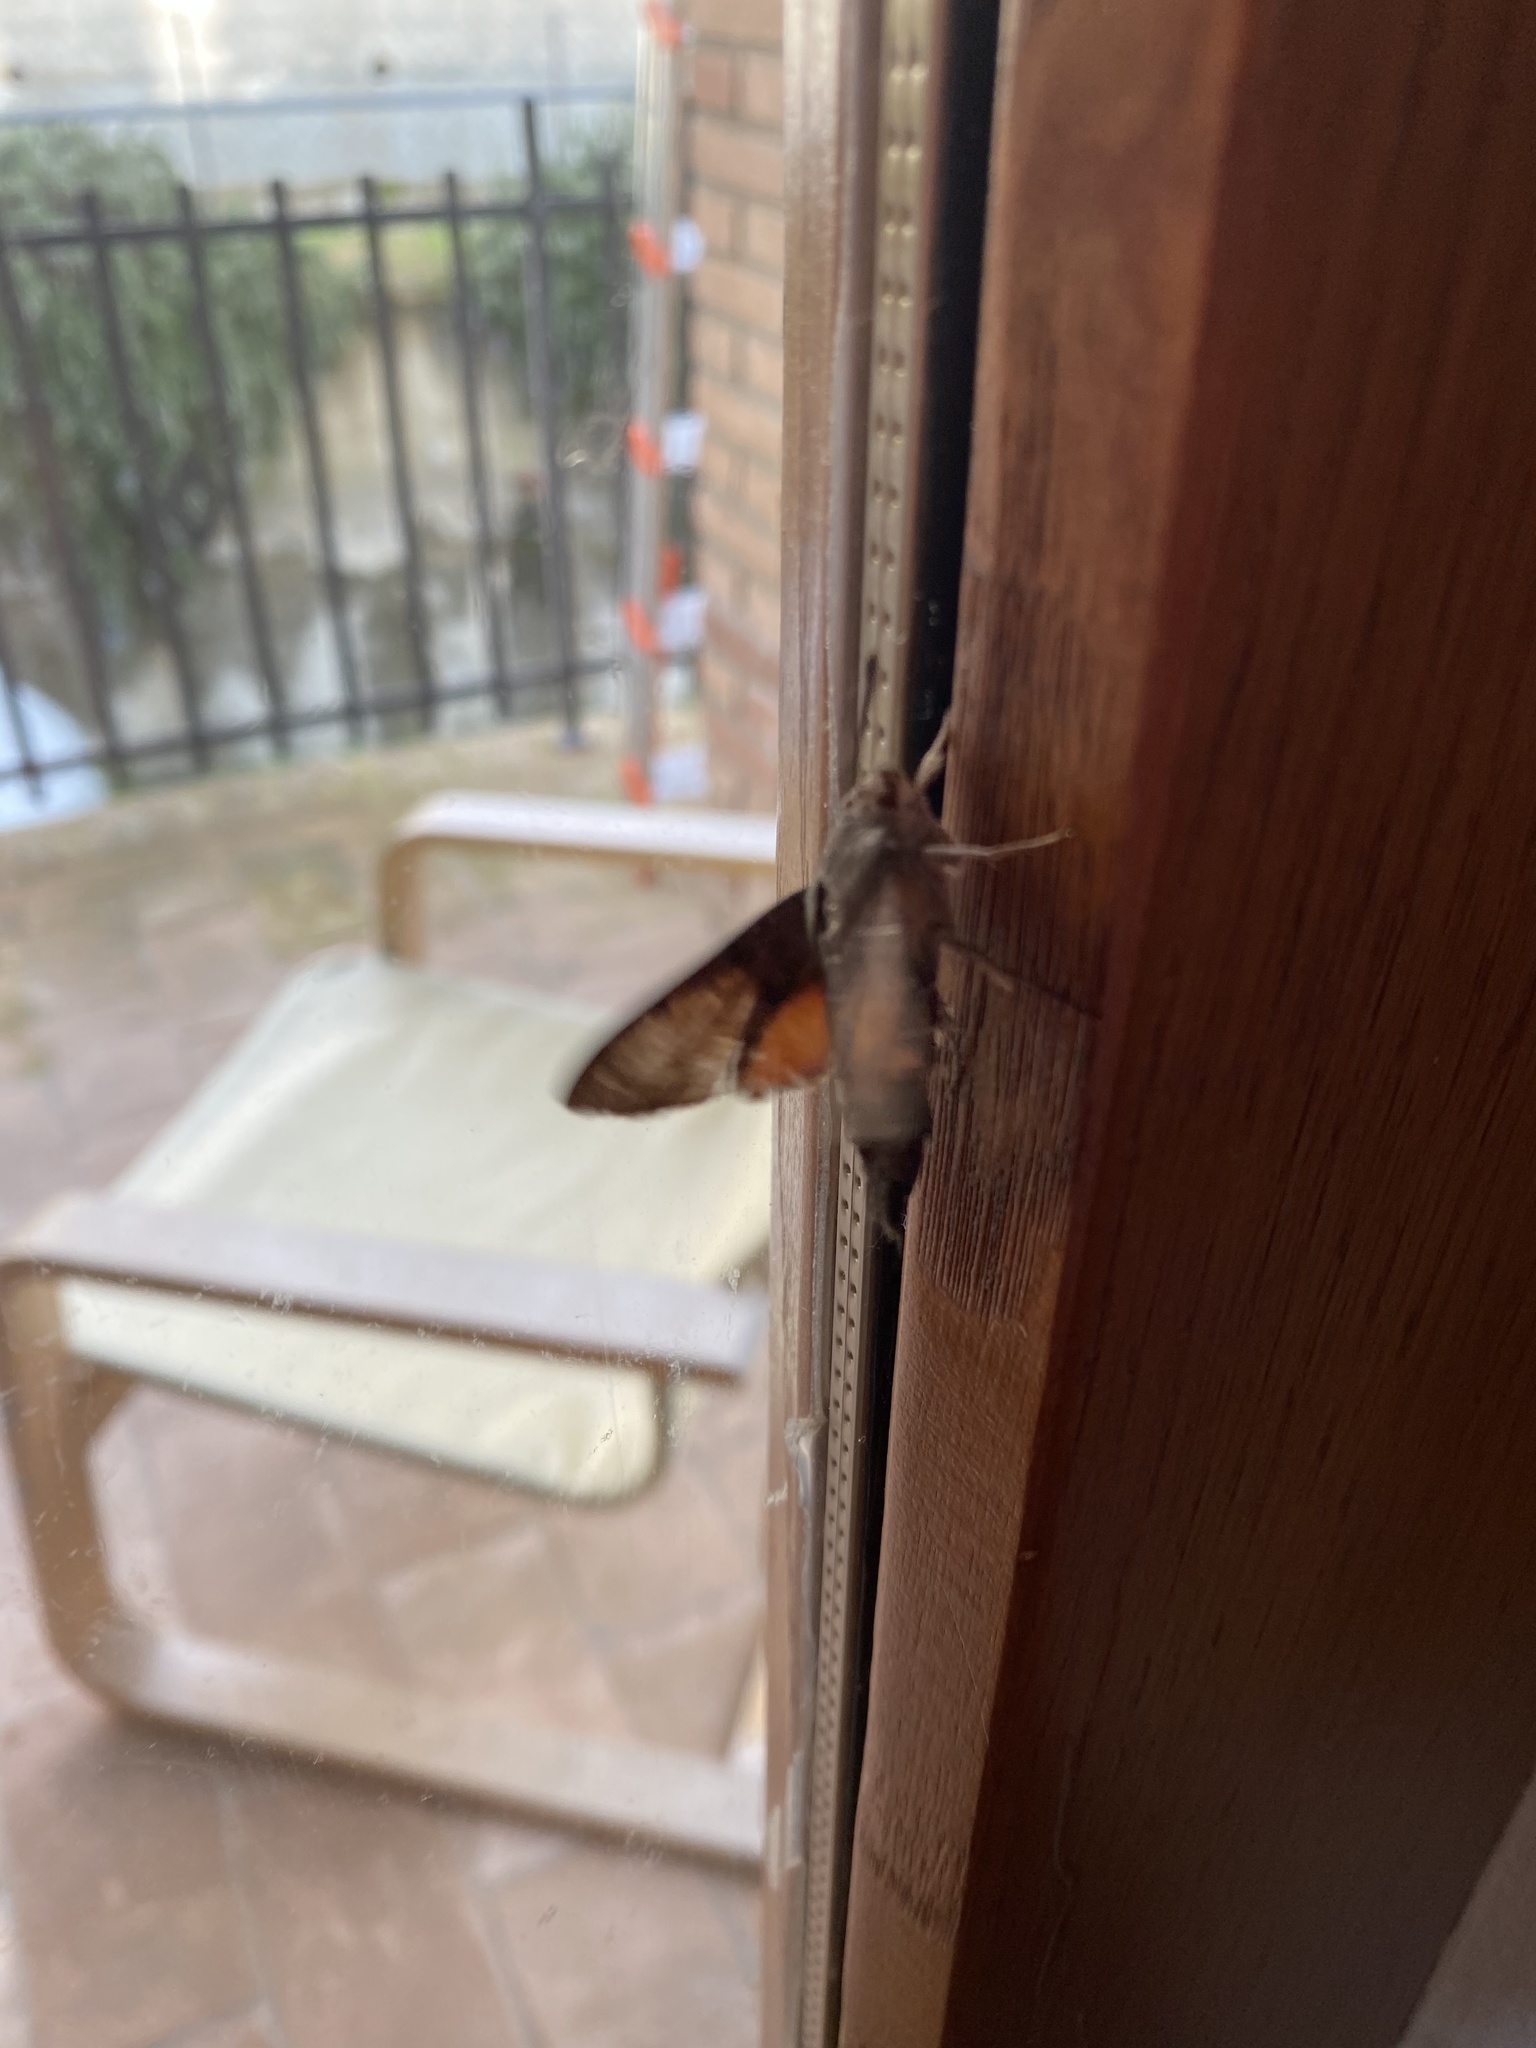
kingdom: Animalia
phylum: Arthropoda
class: Insecta
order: Lepidoptera
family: Sphingidae
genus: Macroglossum
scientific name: Macroglossum stellatarum
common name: Humming-bird hawk-moth
